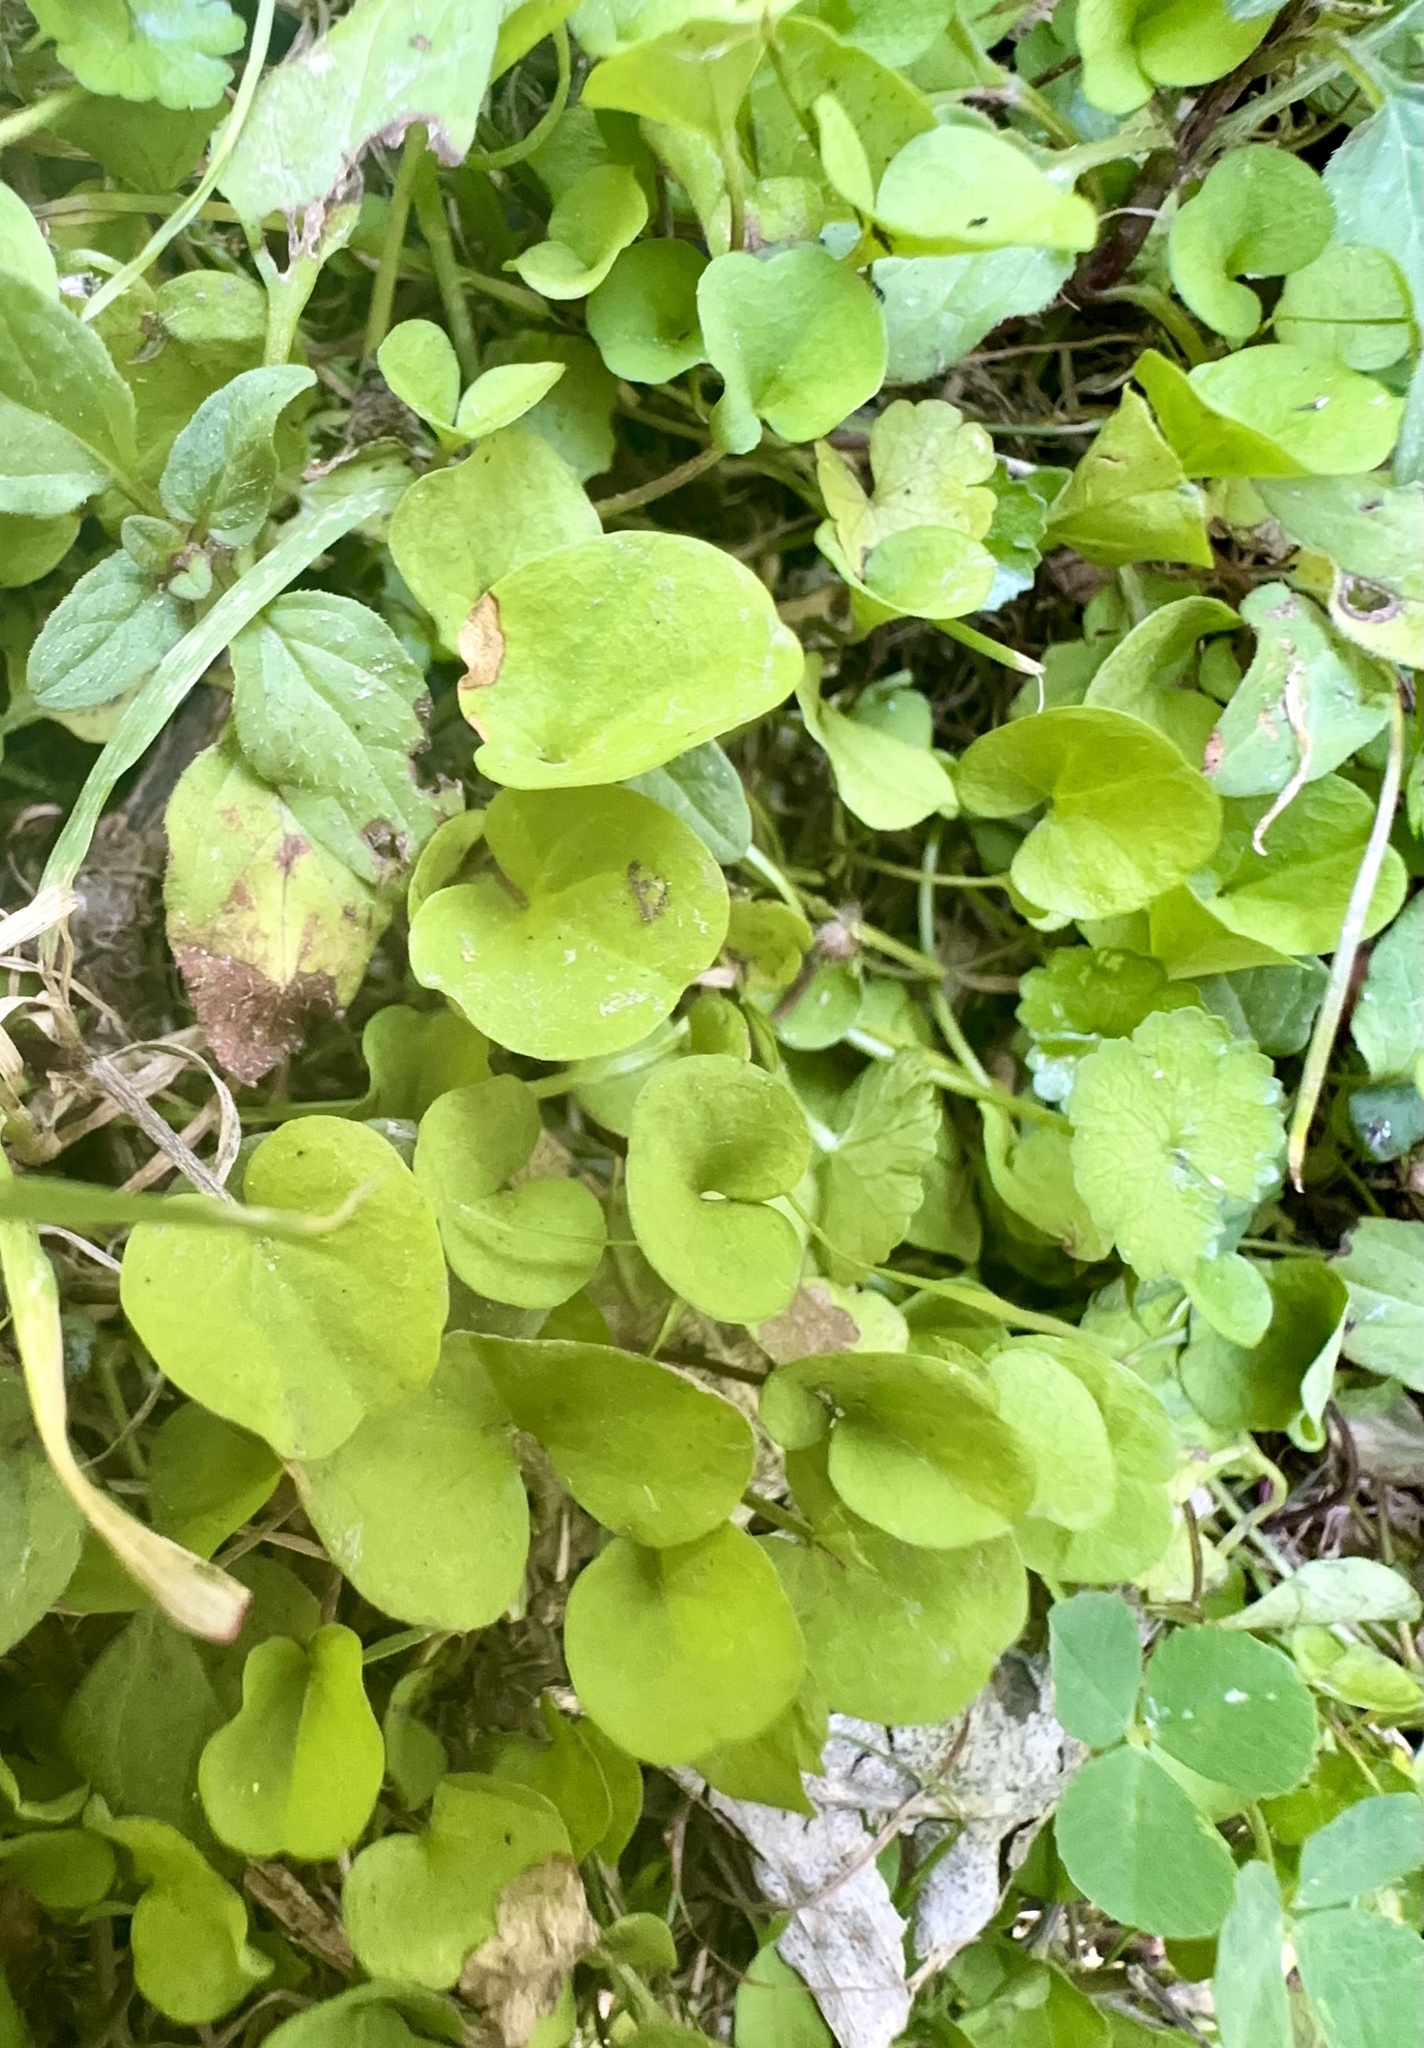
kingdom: Plantae
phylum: Tracheophyta
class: Magnoliopsida
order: Solanales
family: Convolvulaceae
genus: Dichondra
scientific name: Dichondra repens
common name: Kidneyweed
